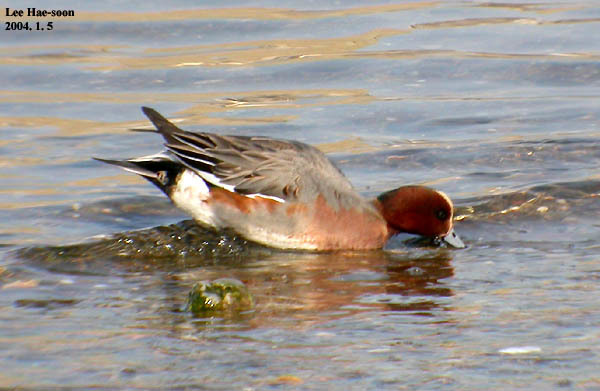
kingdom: Animalia
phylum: Chordata
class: Aves
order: Anseriformes
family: Anatidae
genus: Mareca
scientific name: Mareca penelope
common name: Eurasian wigeon
